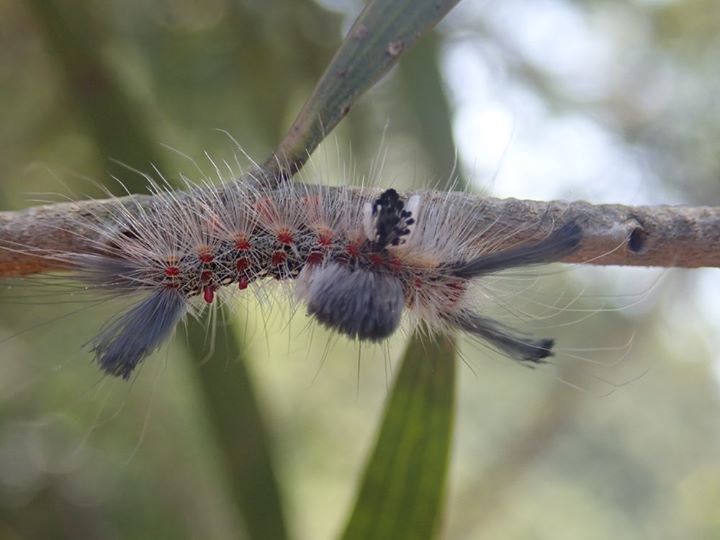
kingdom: Animalia
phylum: Arthropoda
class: Insecta
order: Lepidoptera
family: Erebidae
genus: Olene
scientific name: Olene mendosa
